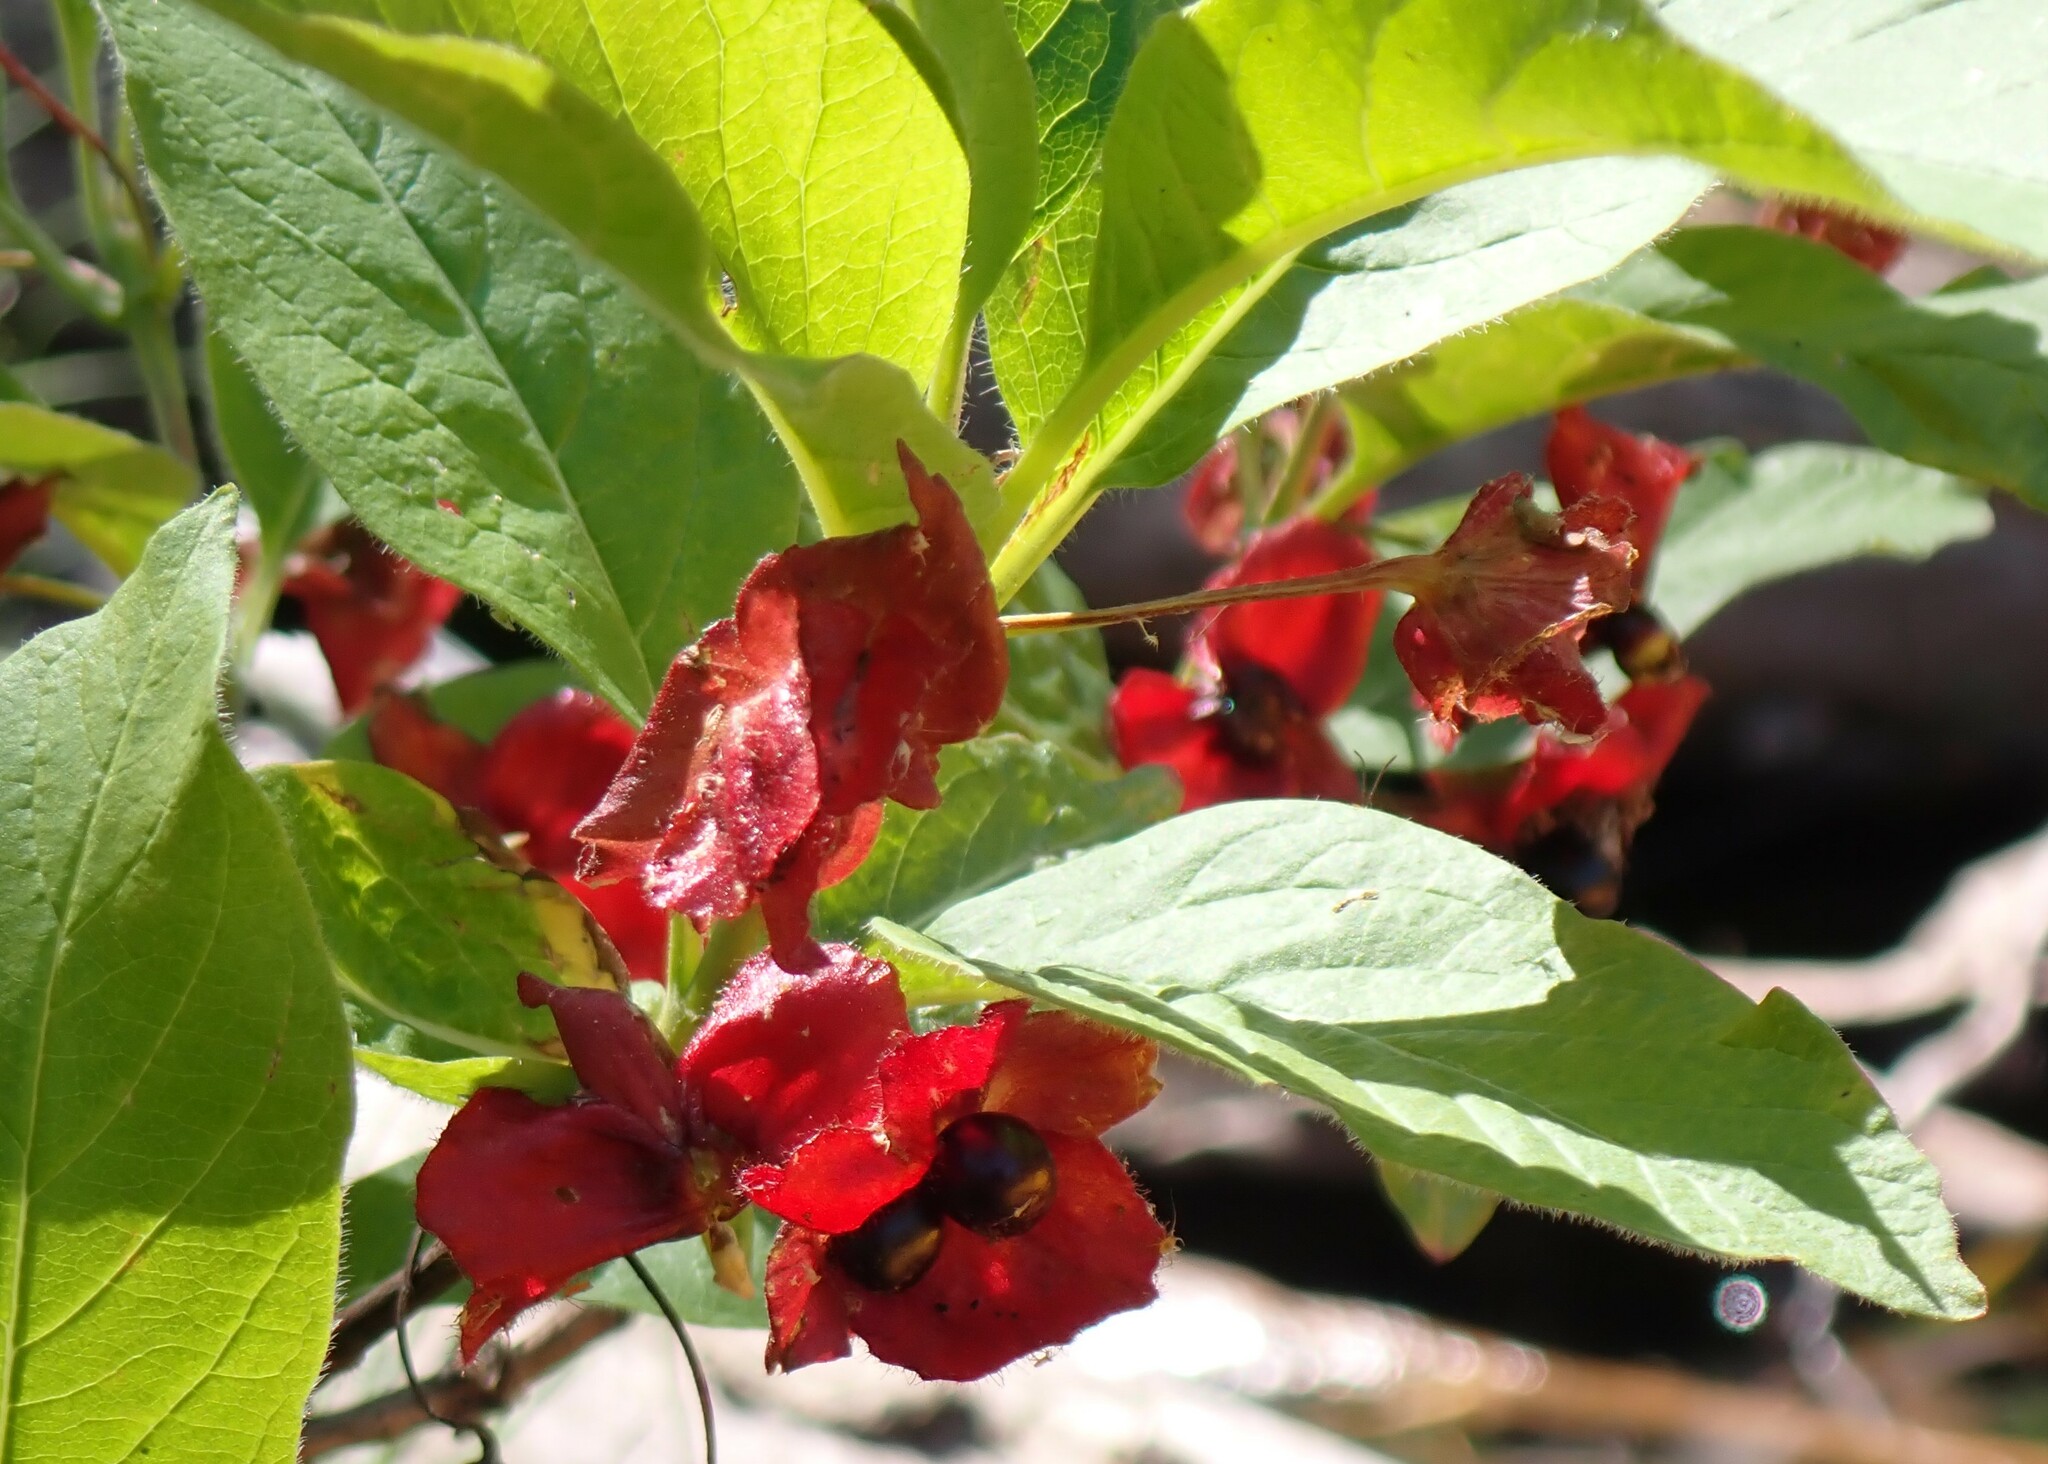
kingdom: Plantae
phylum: Tracheophyta
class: Magnoliopsida
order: Dipsacales
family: Caprifoliaceae
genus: Lonicera
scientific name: Lonicera involucrata
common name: Californian honeysuckle
